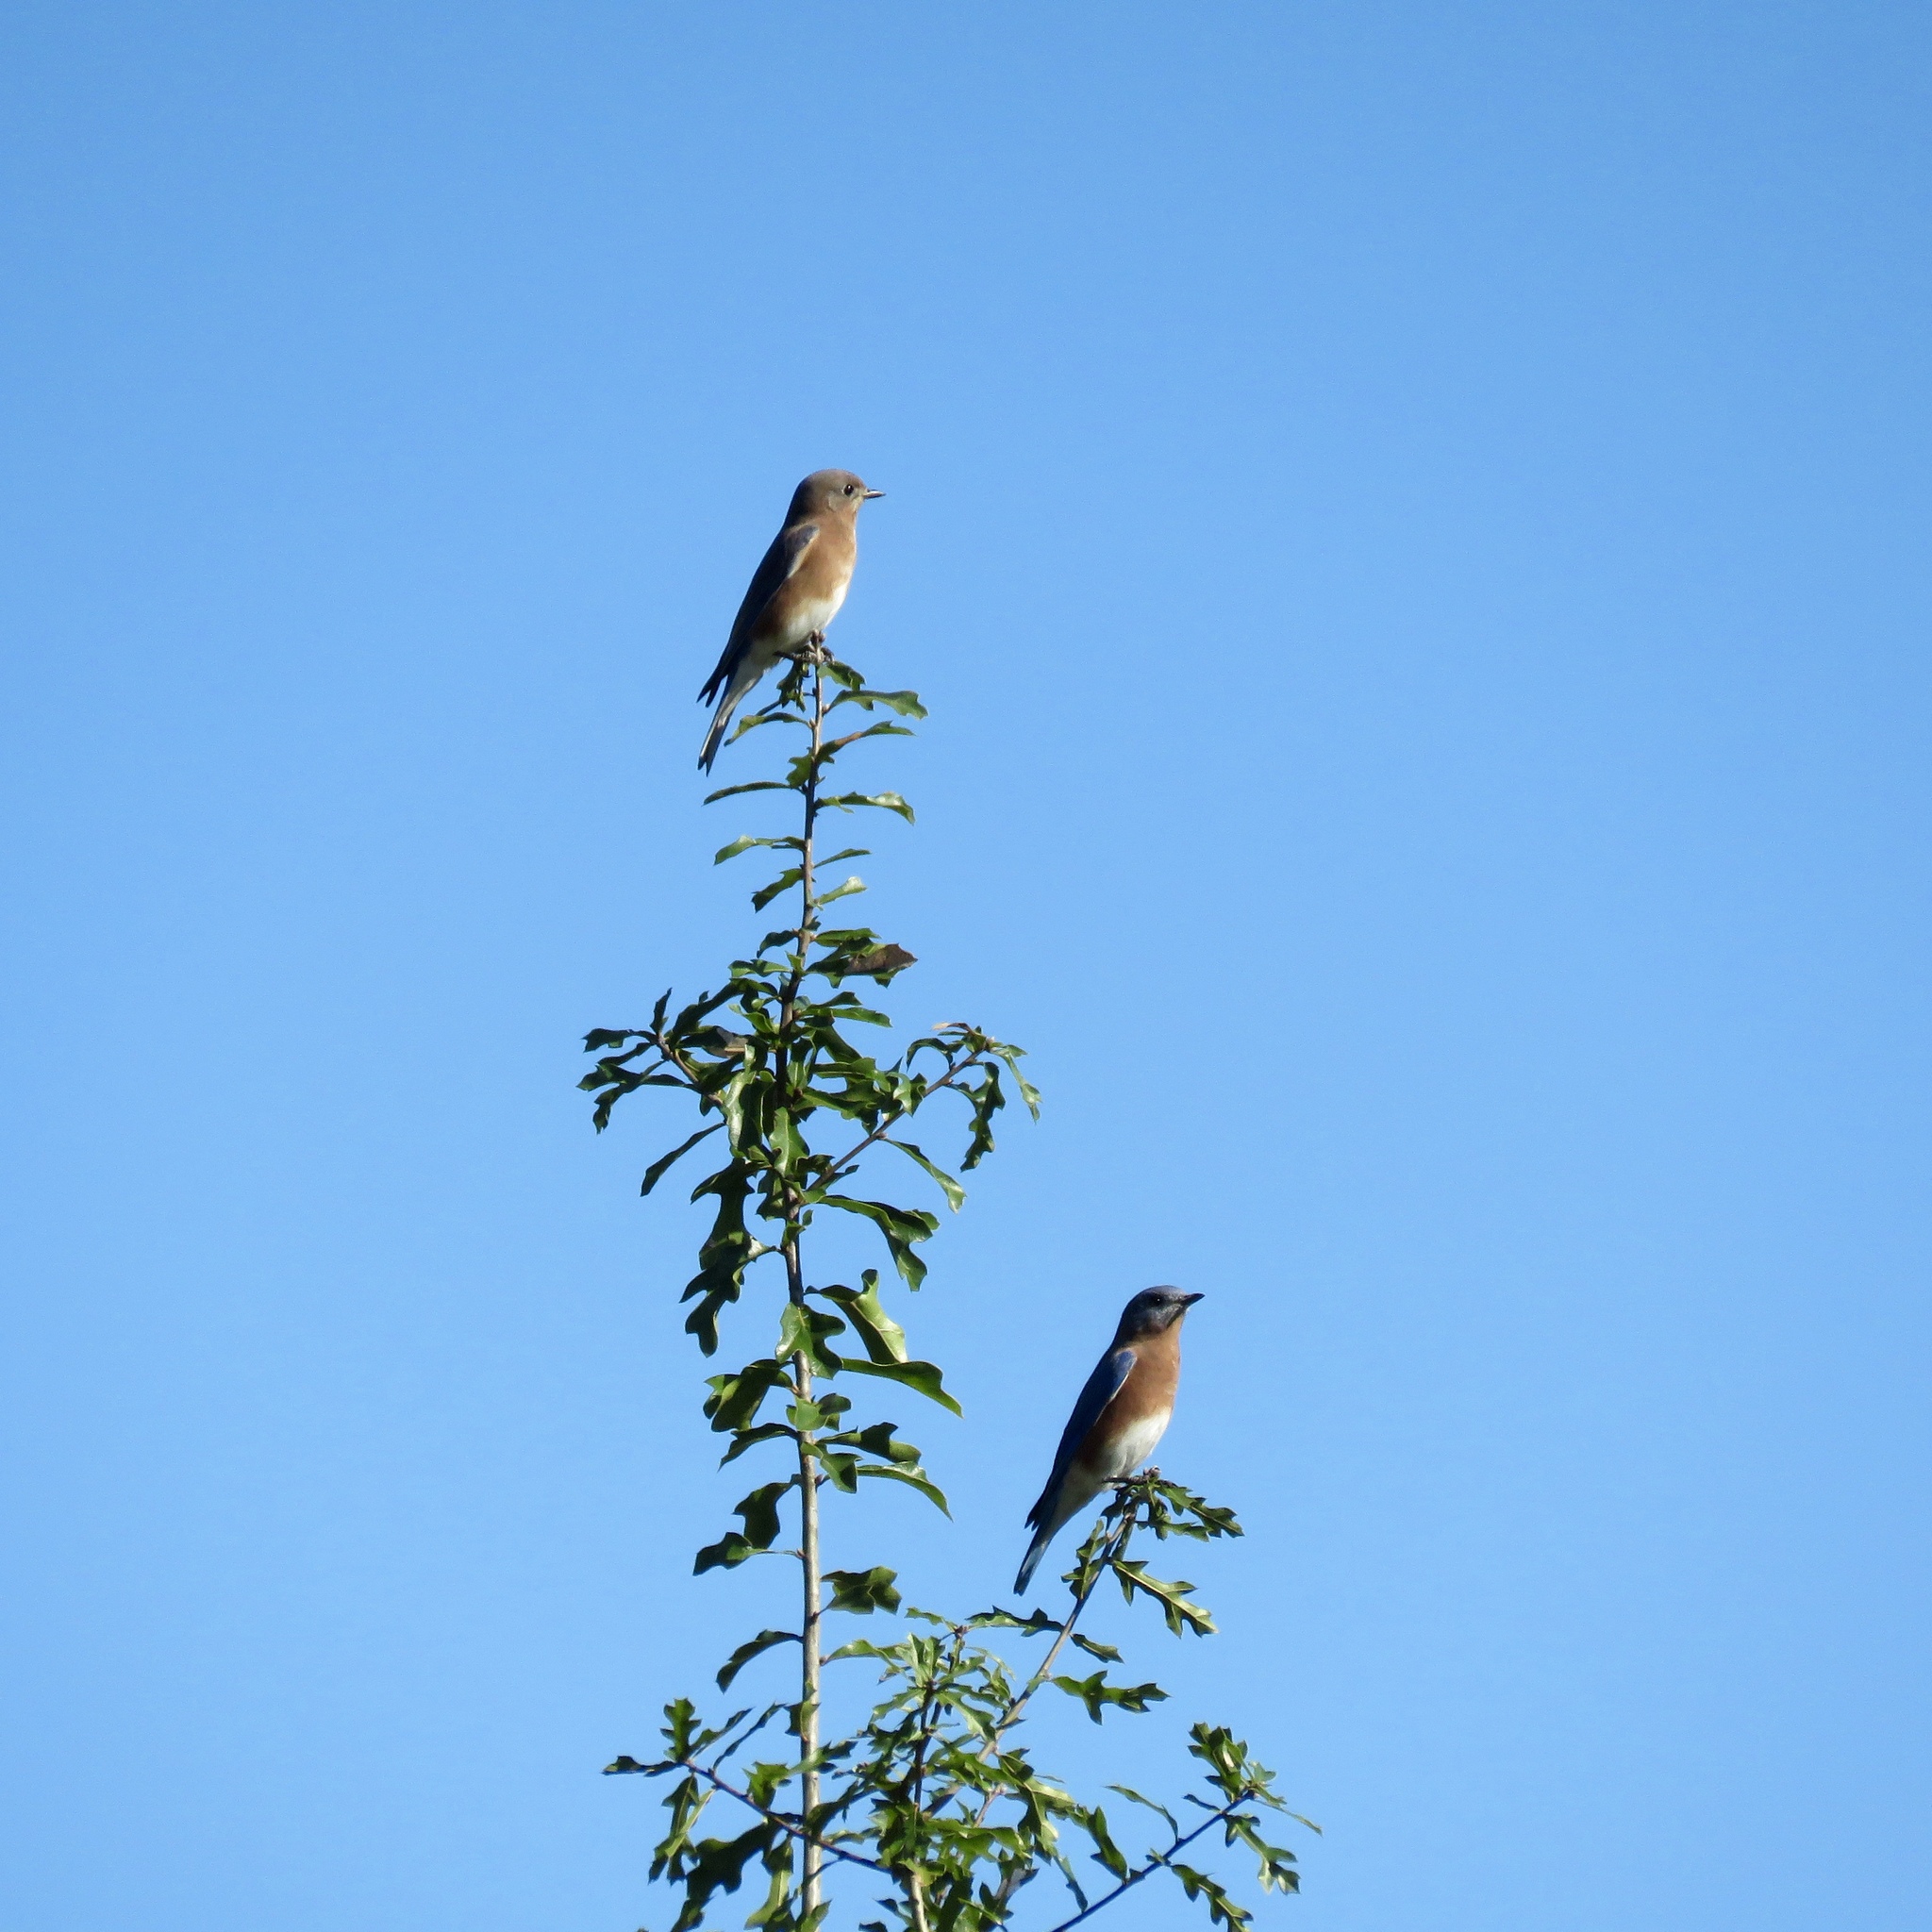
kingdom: Animalia
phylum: Chordata
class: Aves
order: Passeriformes
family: Turdidae
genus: Sialia
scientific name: Sialia sialis
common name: Eastern bluebird
